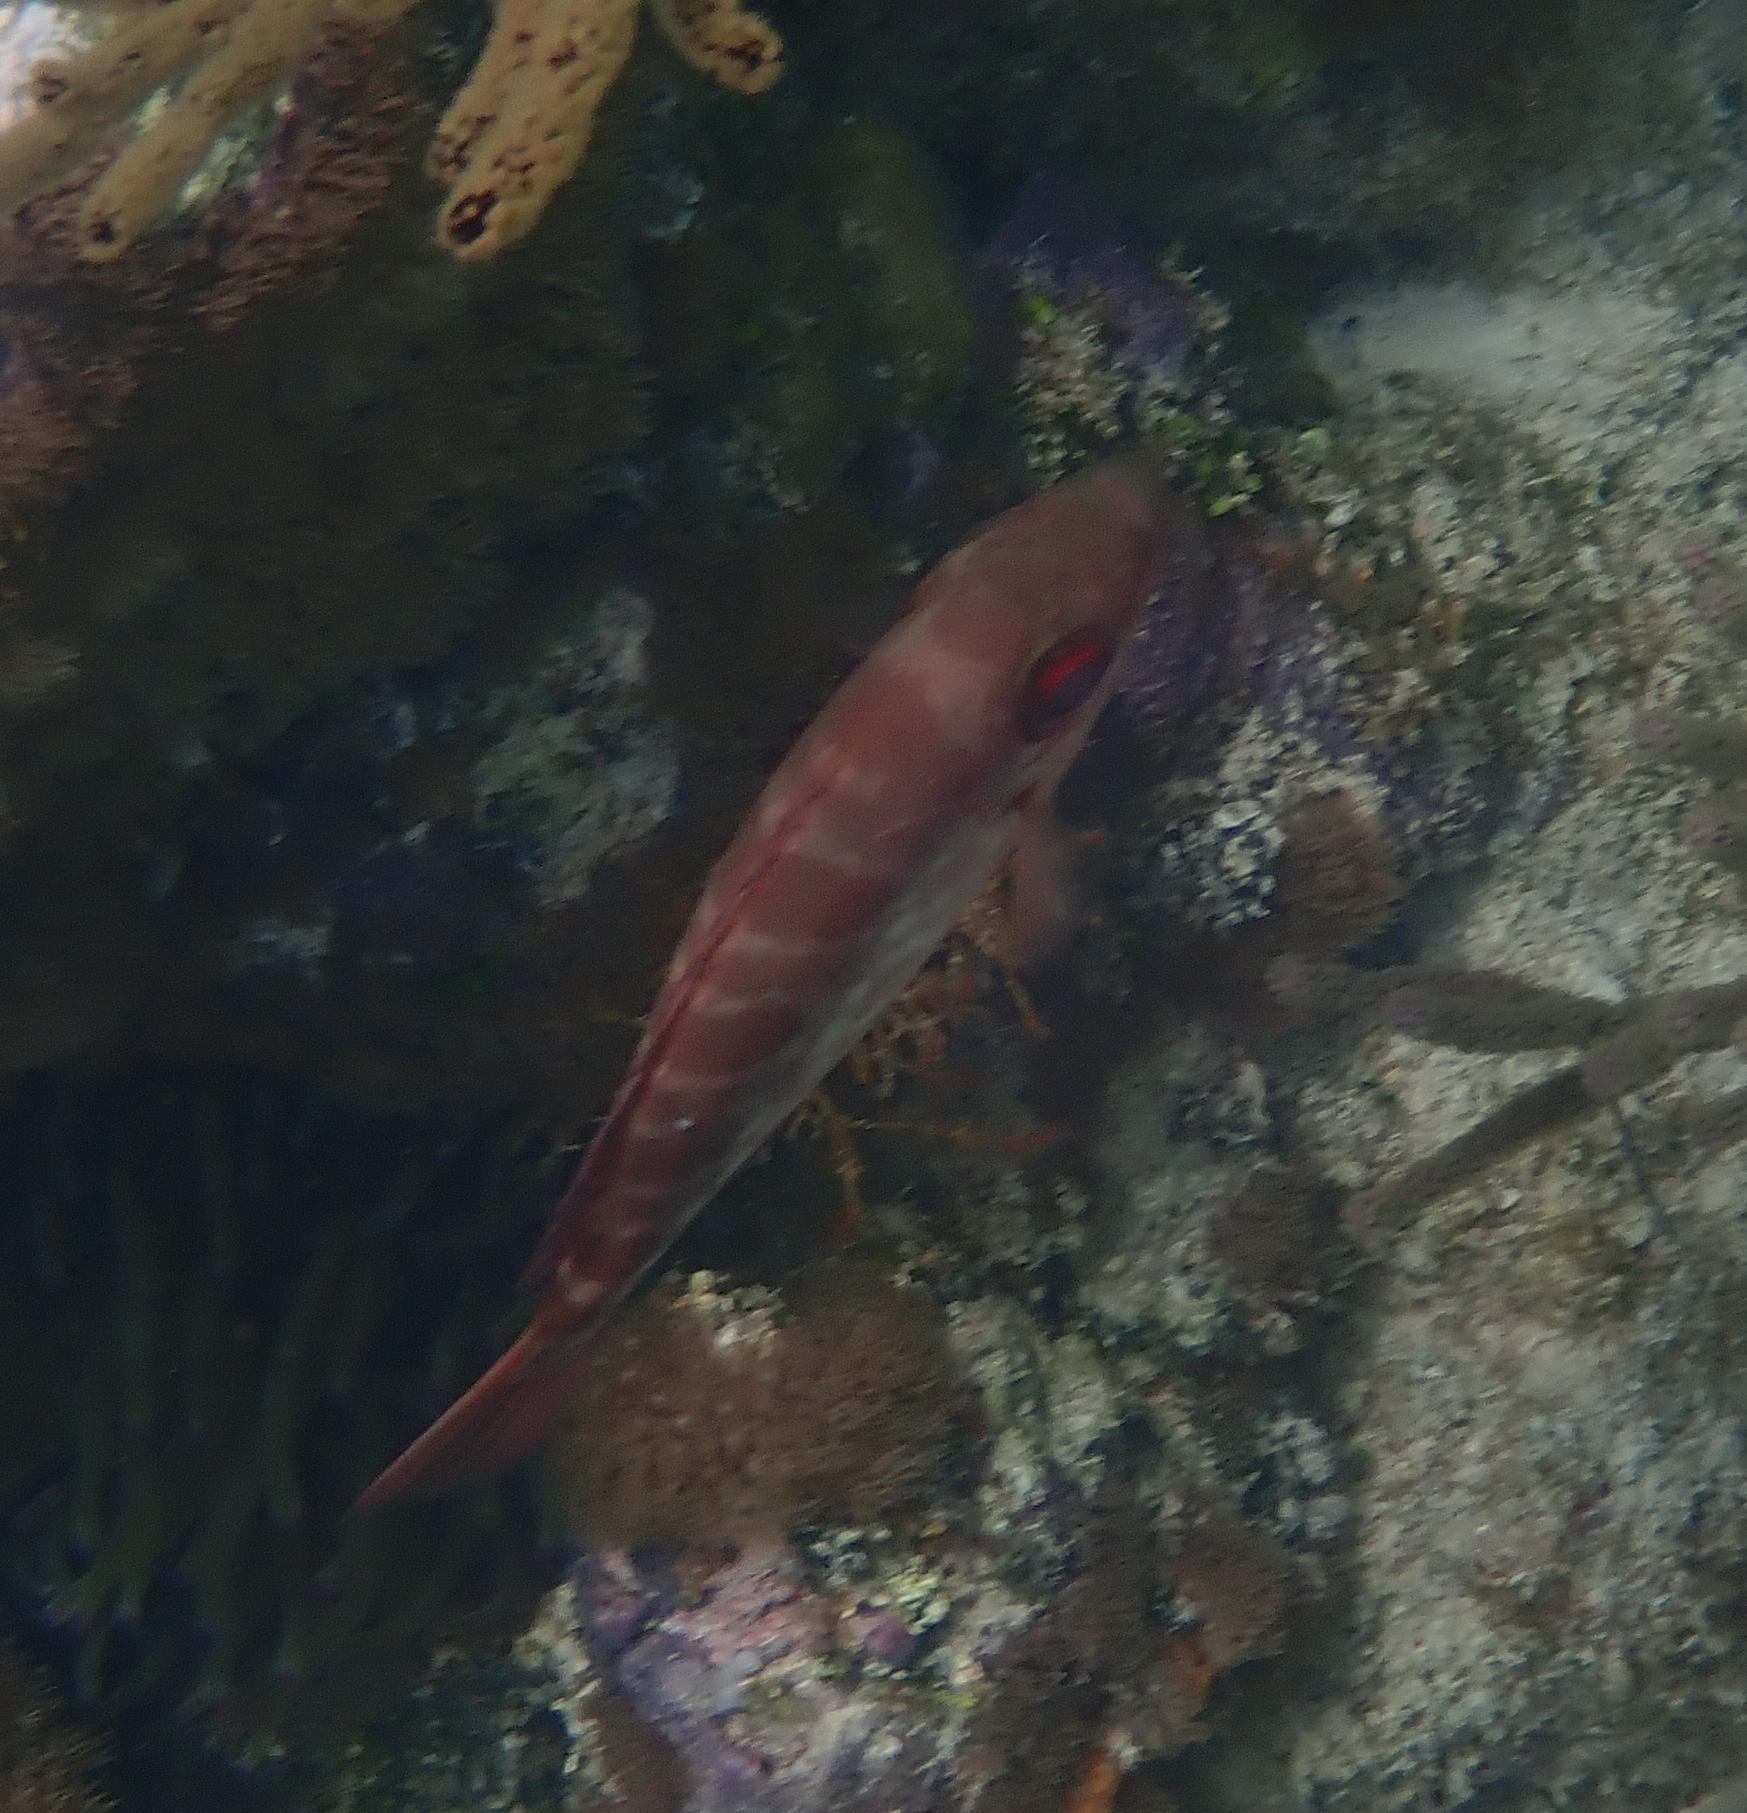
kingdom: Animalia
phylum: Chordata
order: Perciformes
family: Priacanthidae
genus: Heteropriacanthus
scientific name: Heteropriacanthus cruentatus
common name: Glasseye
